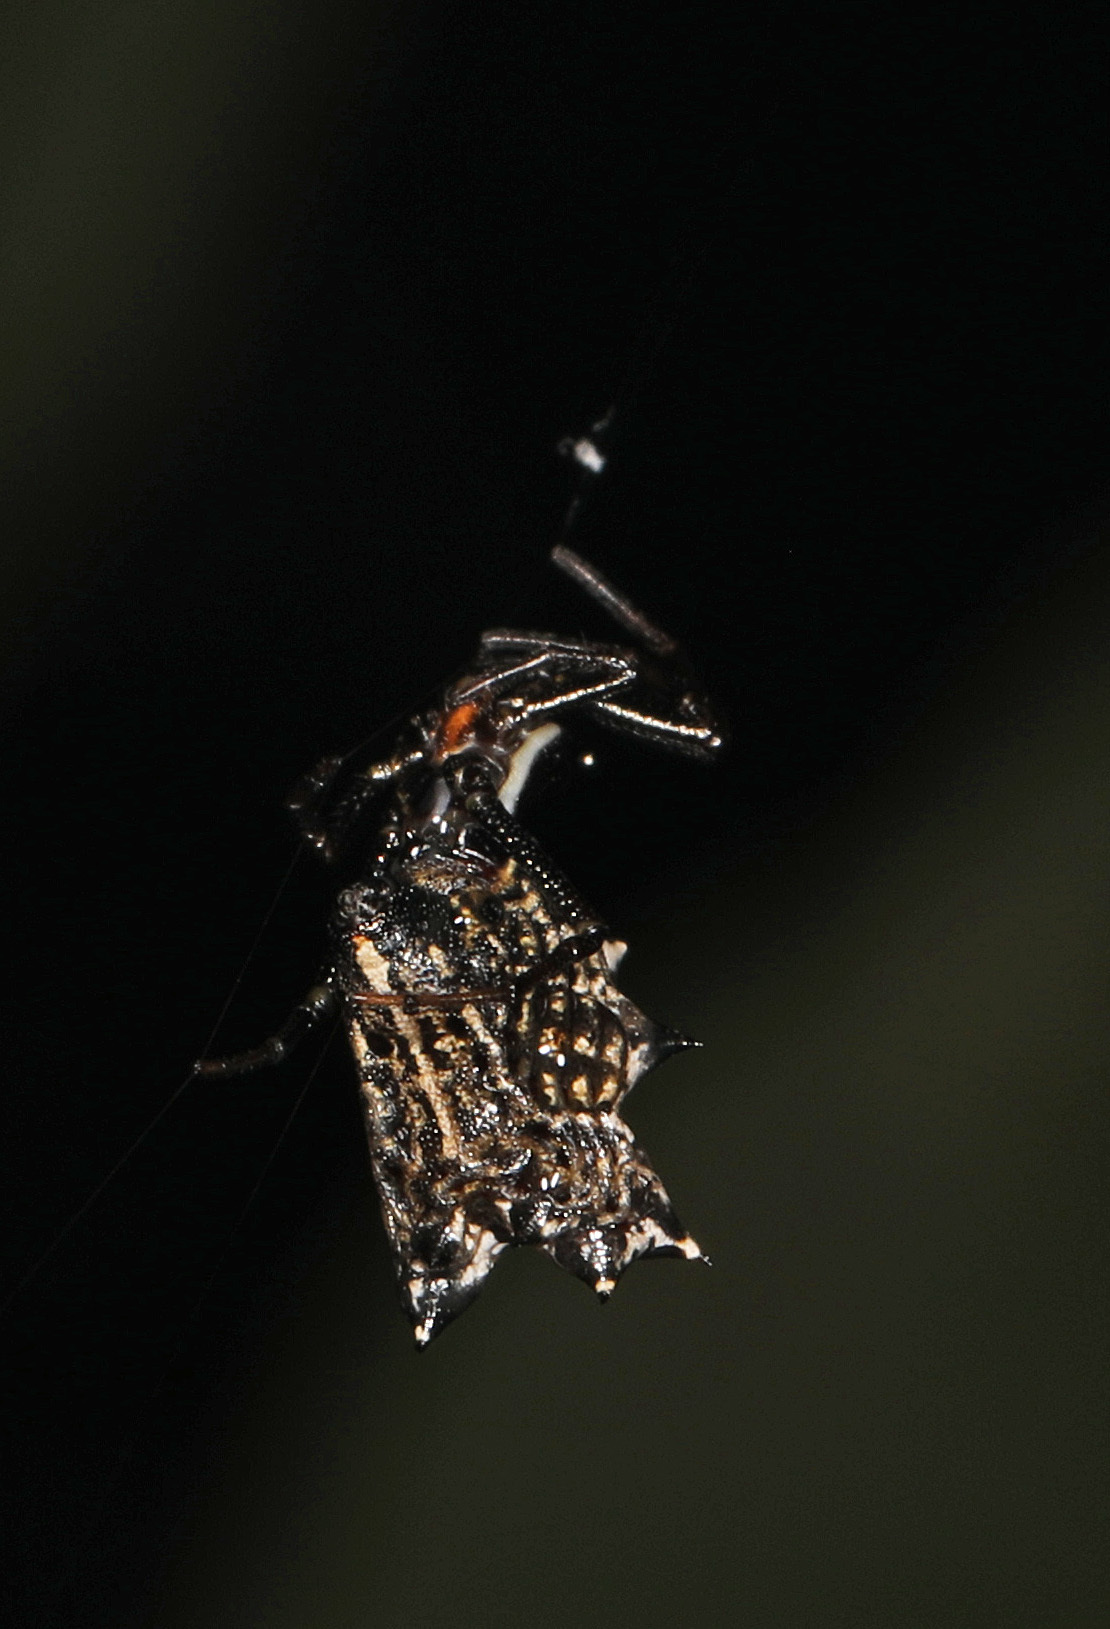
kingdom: Animalia
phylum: Arthropoda
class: Arachnida
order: Araneae
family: Araneidae
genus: Micrathena
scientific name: Micrathena gracilis
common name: Orb weavers
